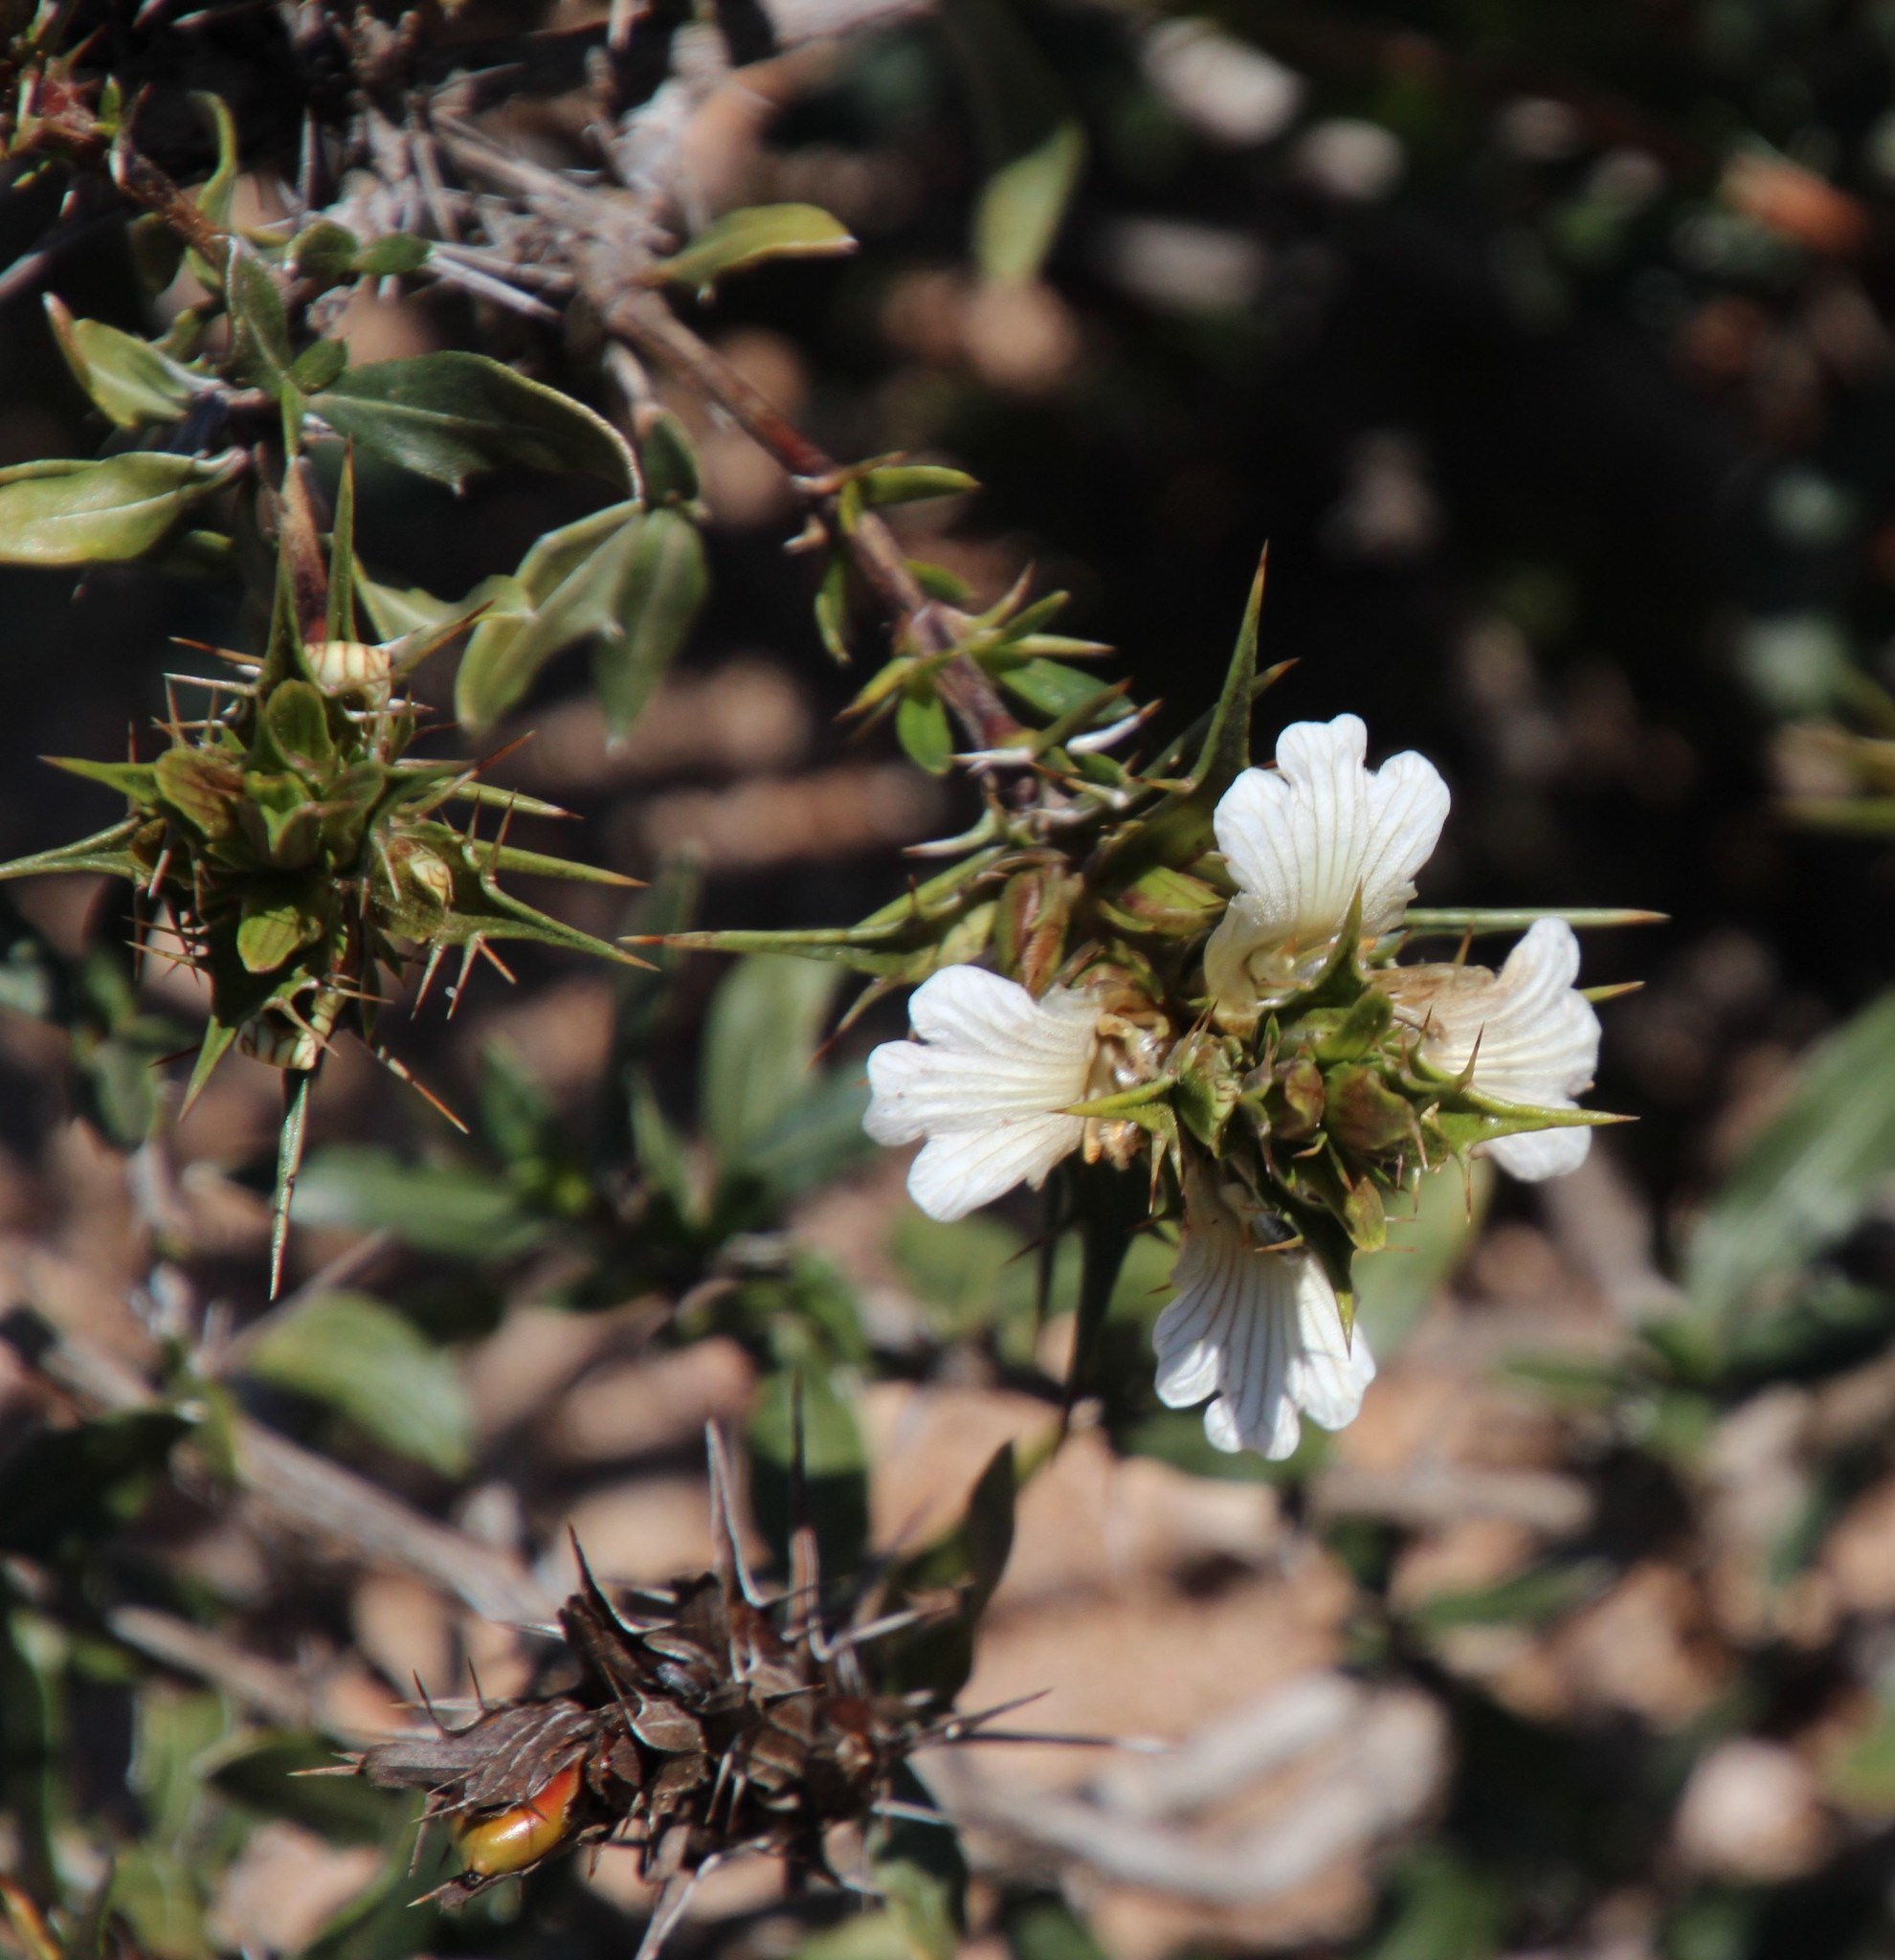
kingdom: Plantae
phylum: Tracheophyta
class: Magnoliopsida
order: Lamiales
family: Acanthaceae
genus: Blepharis
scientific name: Blepharis capensis
